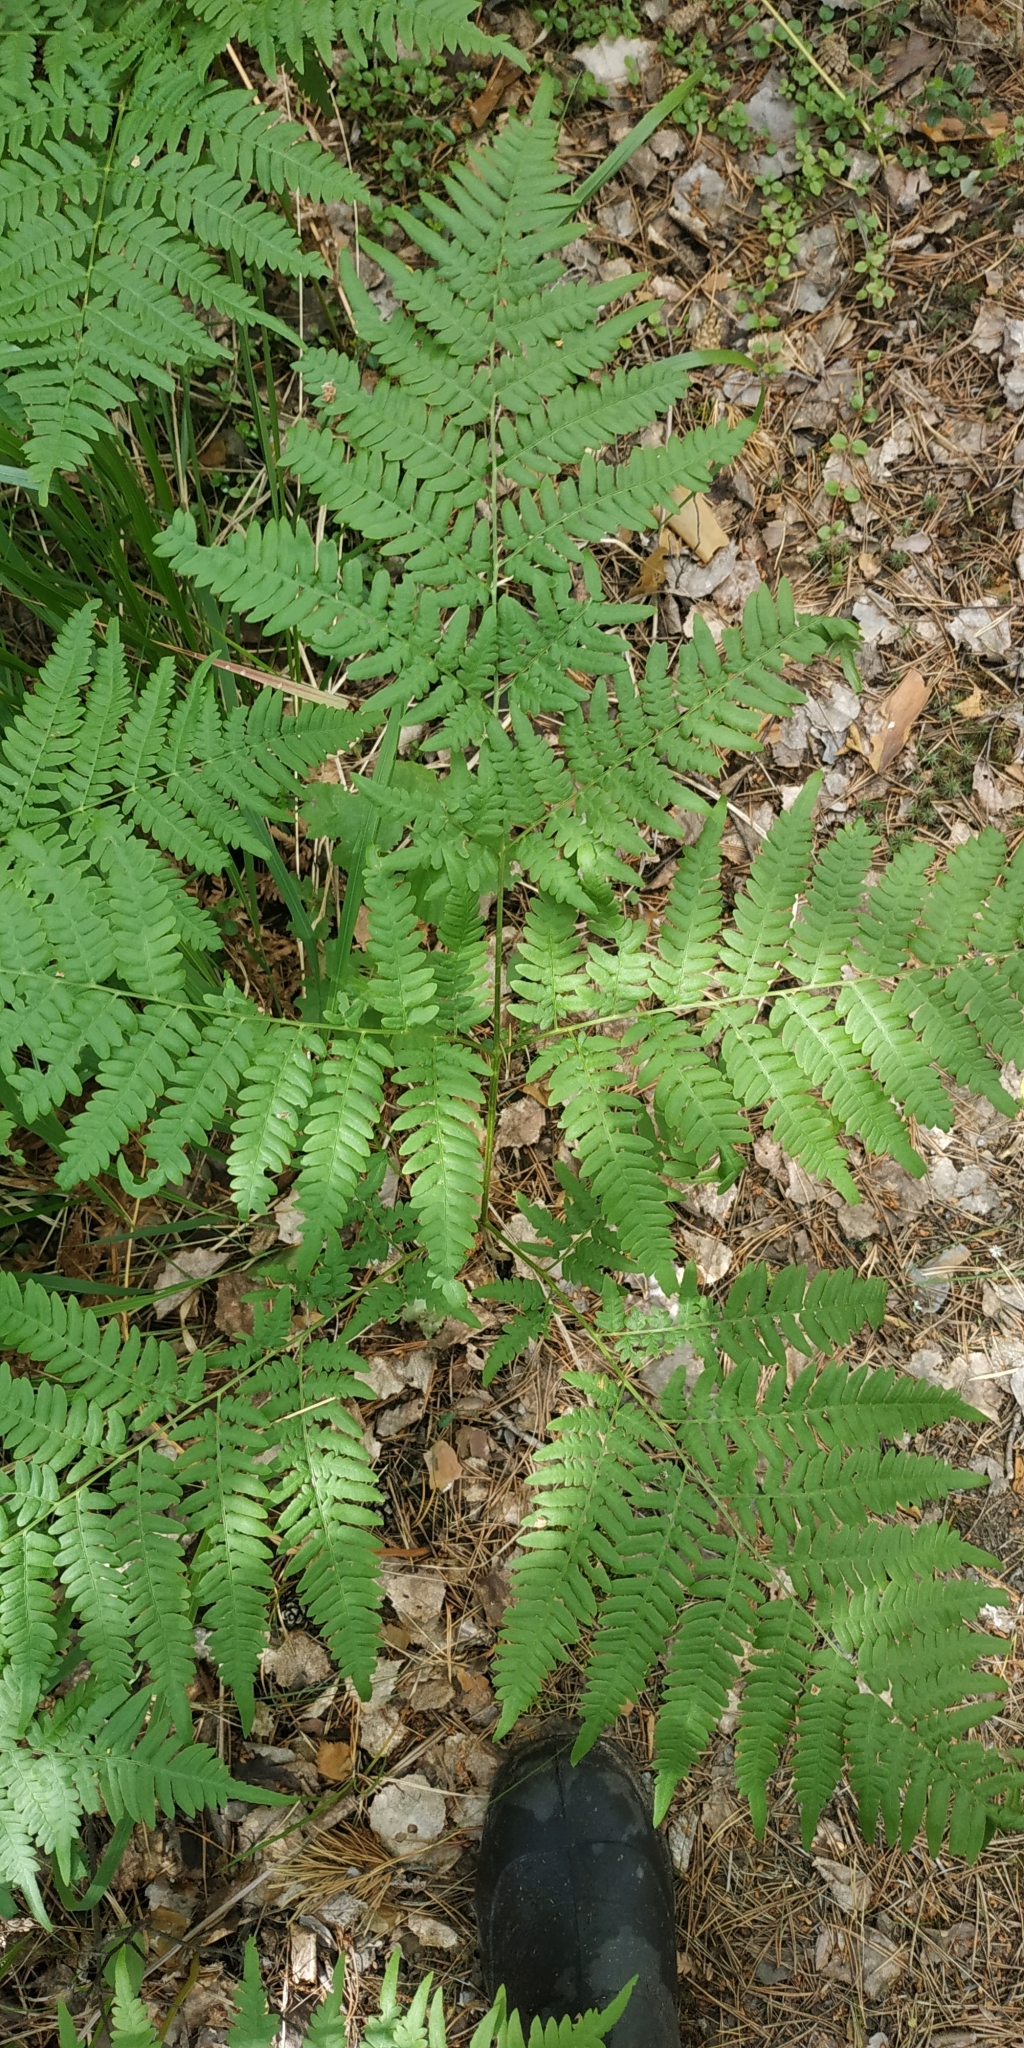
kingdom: Plantae
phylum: Tracheophyta
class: Polypodiopsida
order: Polypodiales
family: Dennstaedtiaceae
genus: Pteridium
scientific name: Pteridium aquilinum
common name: Bracken
